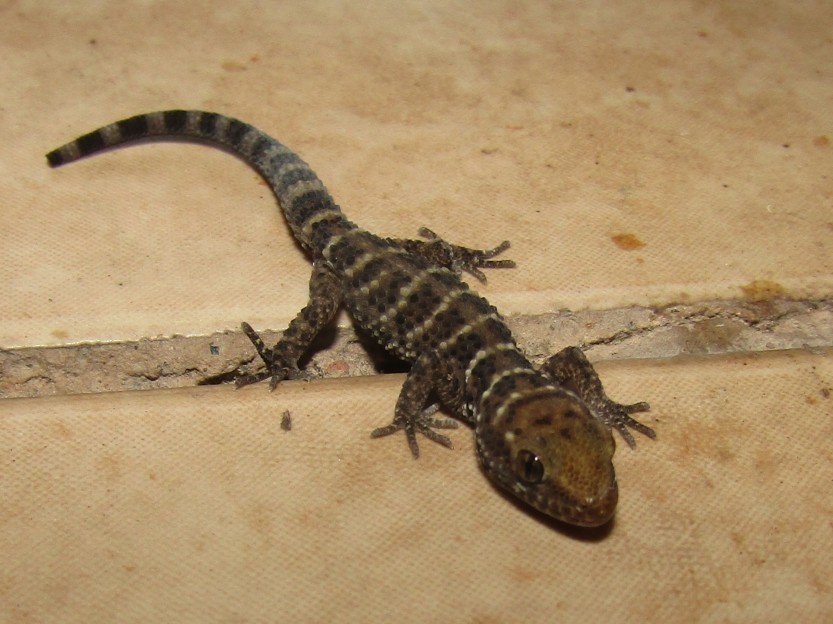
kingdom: Animalia
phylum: Chordata
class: Squamata
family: Phyllodactylidae
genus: Homonota
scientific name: Homonota horrida
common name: South american marked gecko
